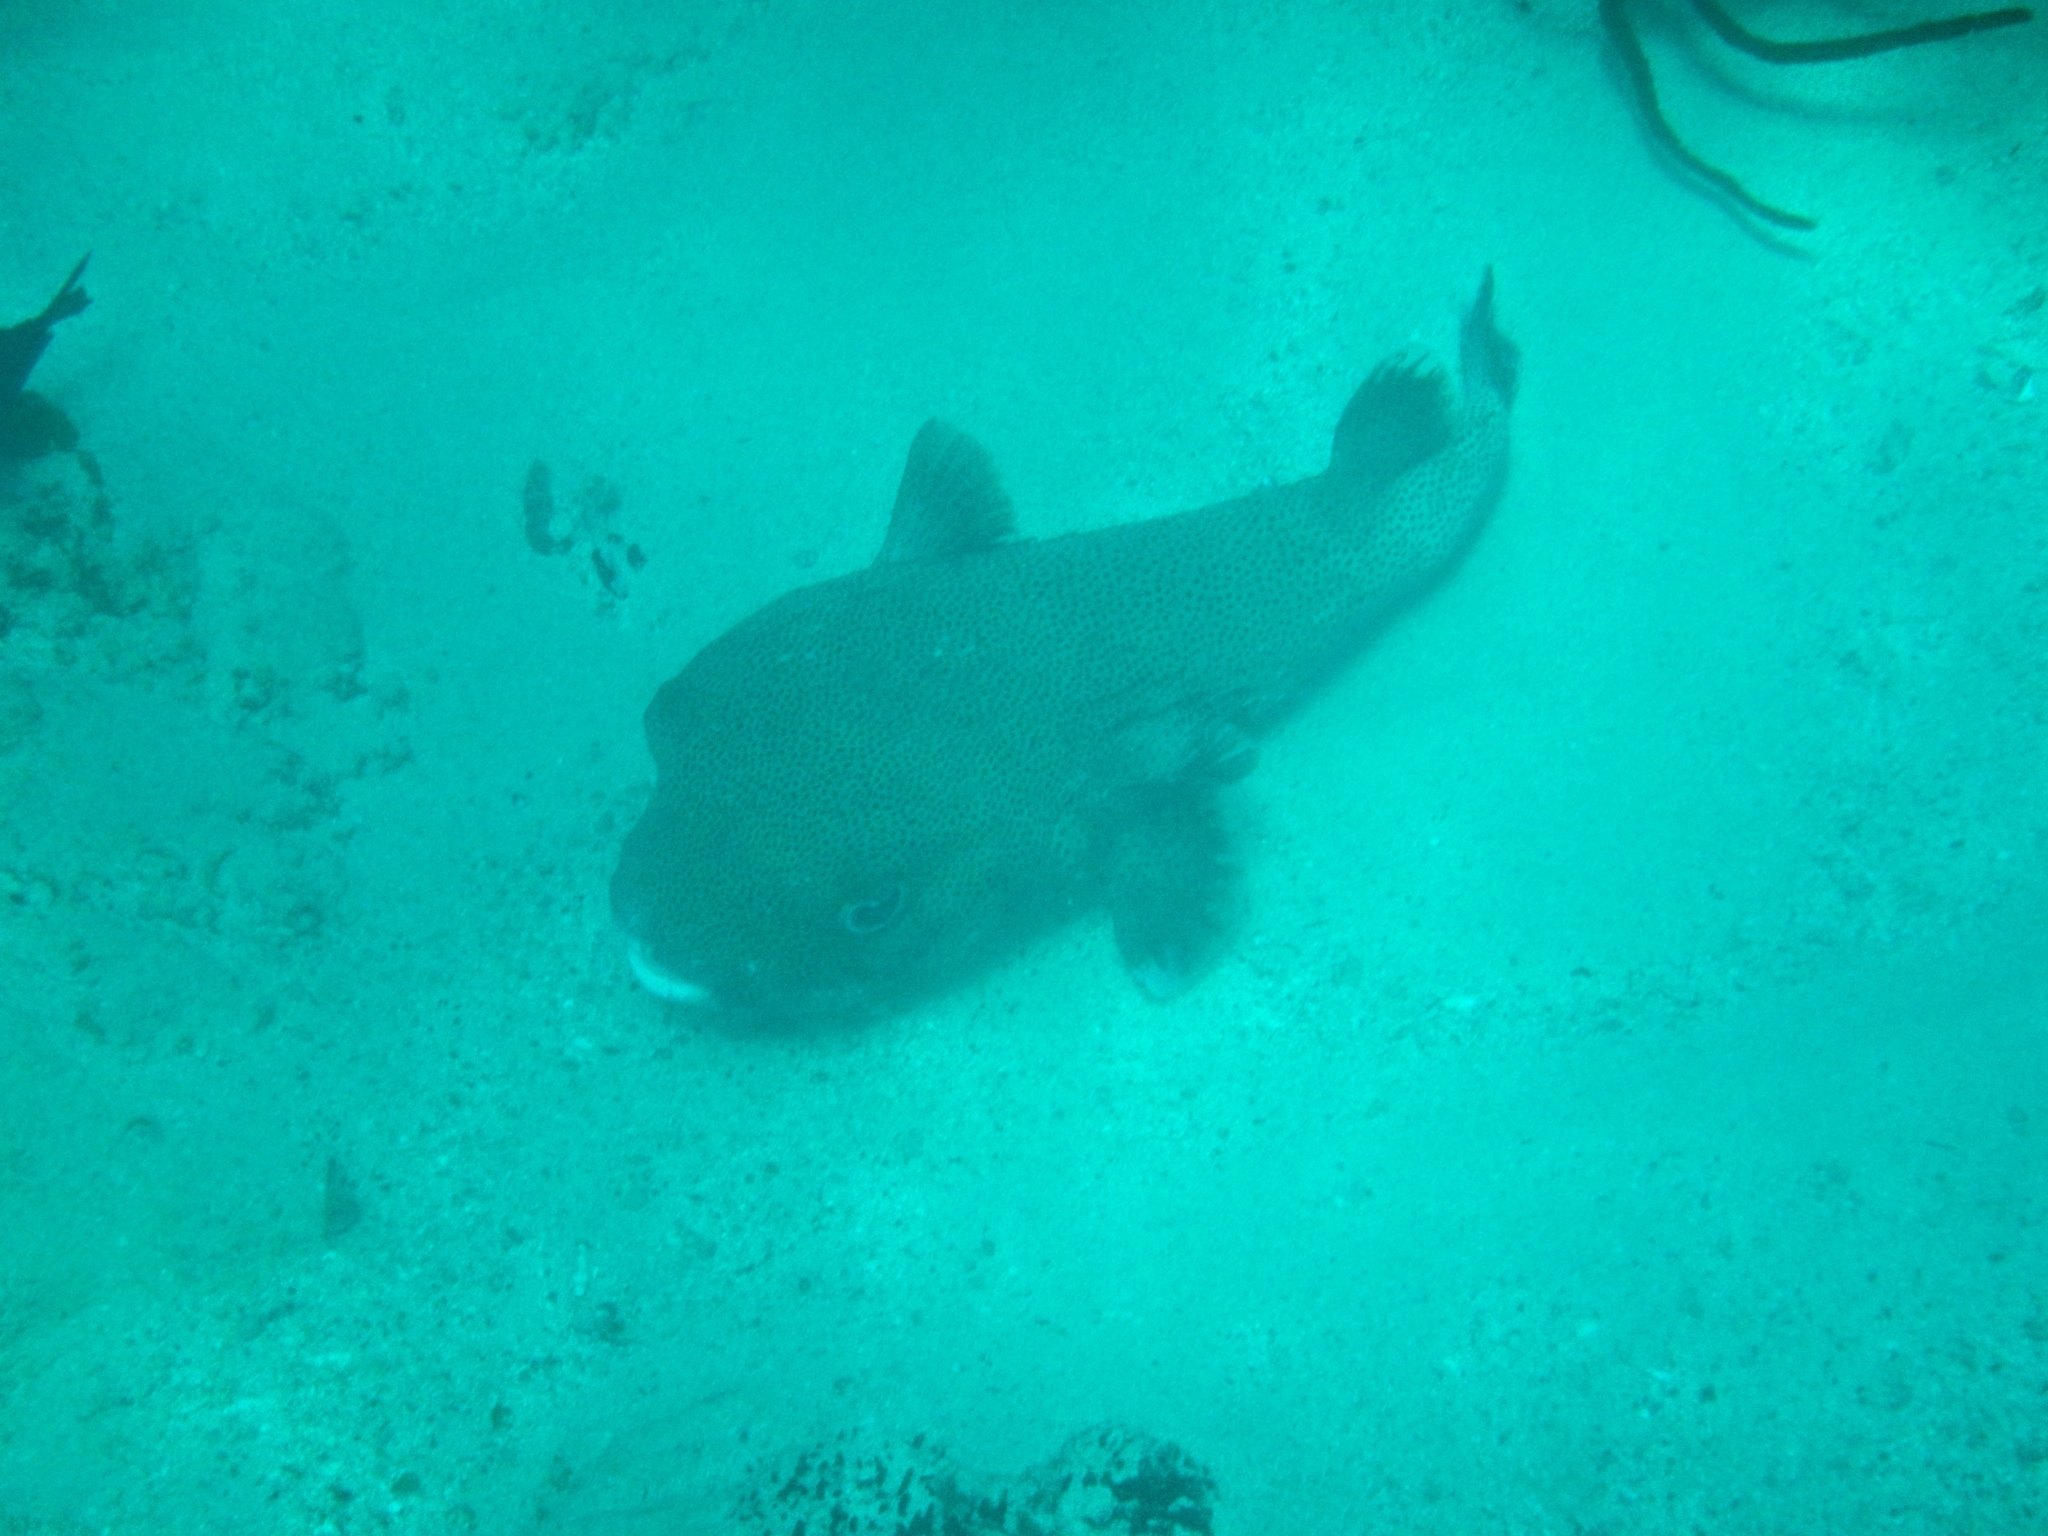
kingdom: Animalia
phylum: Chordata
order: Tetraodontiformes
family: Diodontidae
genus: Diodon
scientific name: Diodon hystrix
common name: Giant porcupinefish
